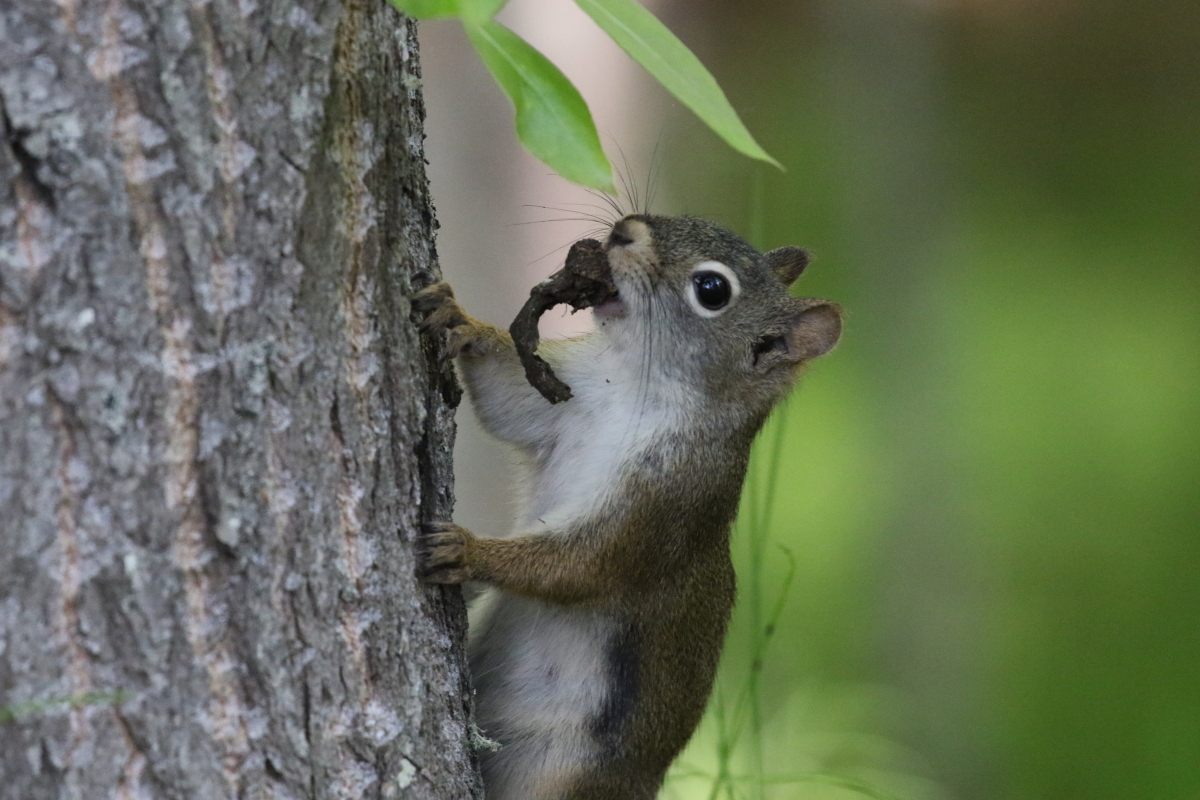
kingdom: Animalia
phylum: Chordata
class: Mammalia
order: Rodentia
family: Sciuridae
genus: Tamiasciurus
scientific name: Tamiasciurus hudsonicus
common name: Red squirrel
